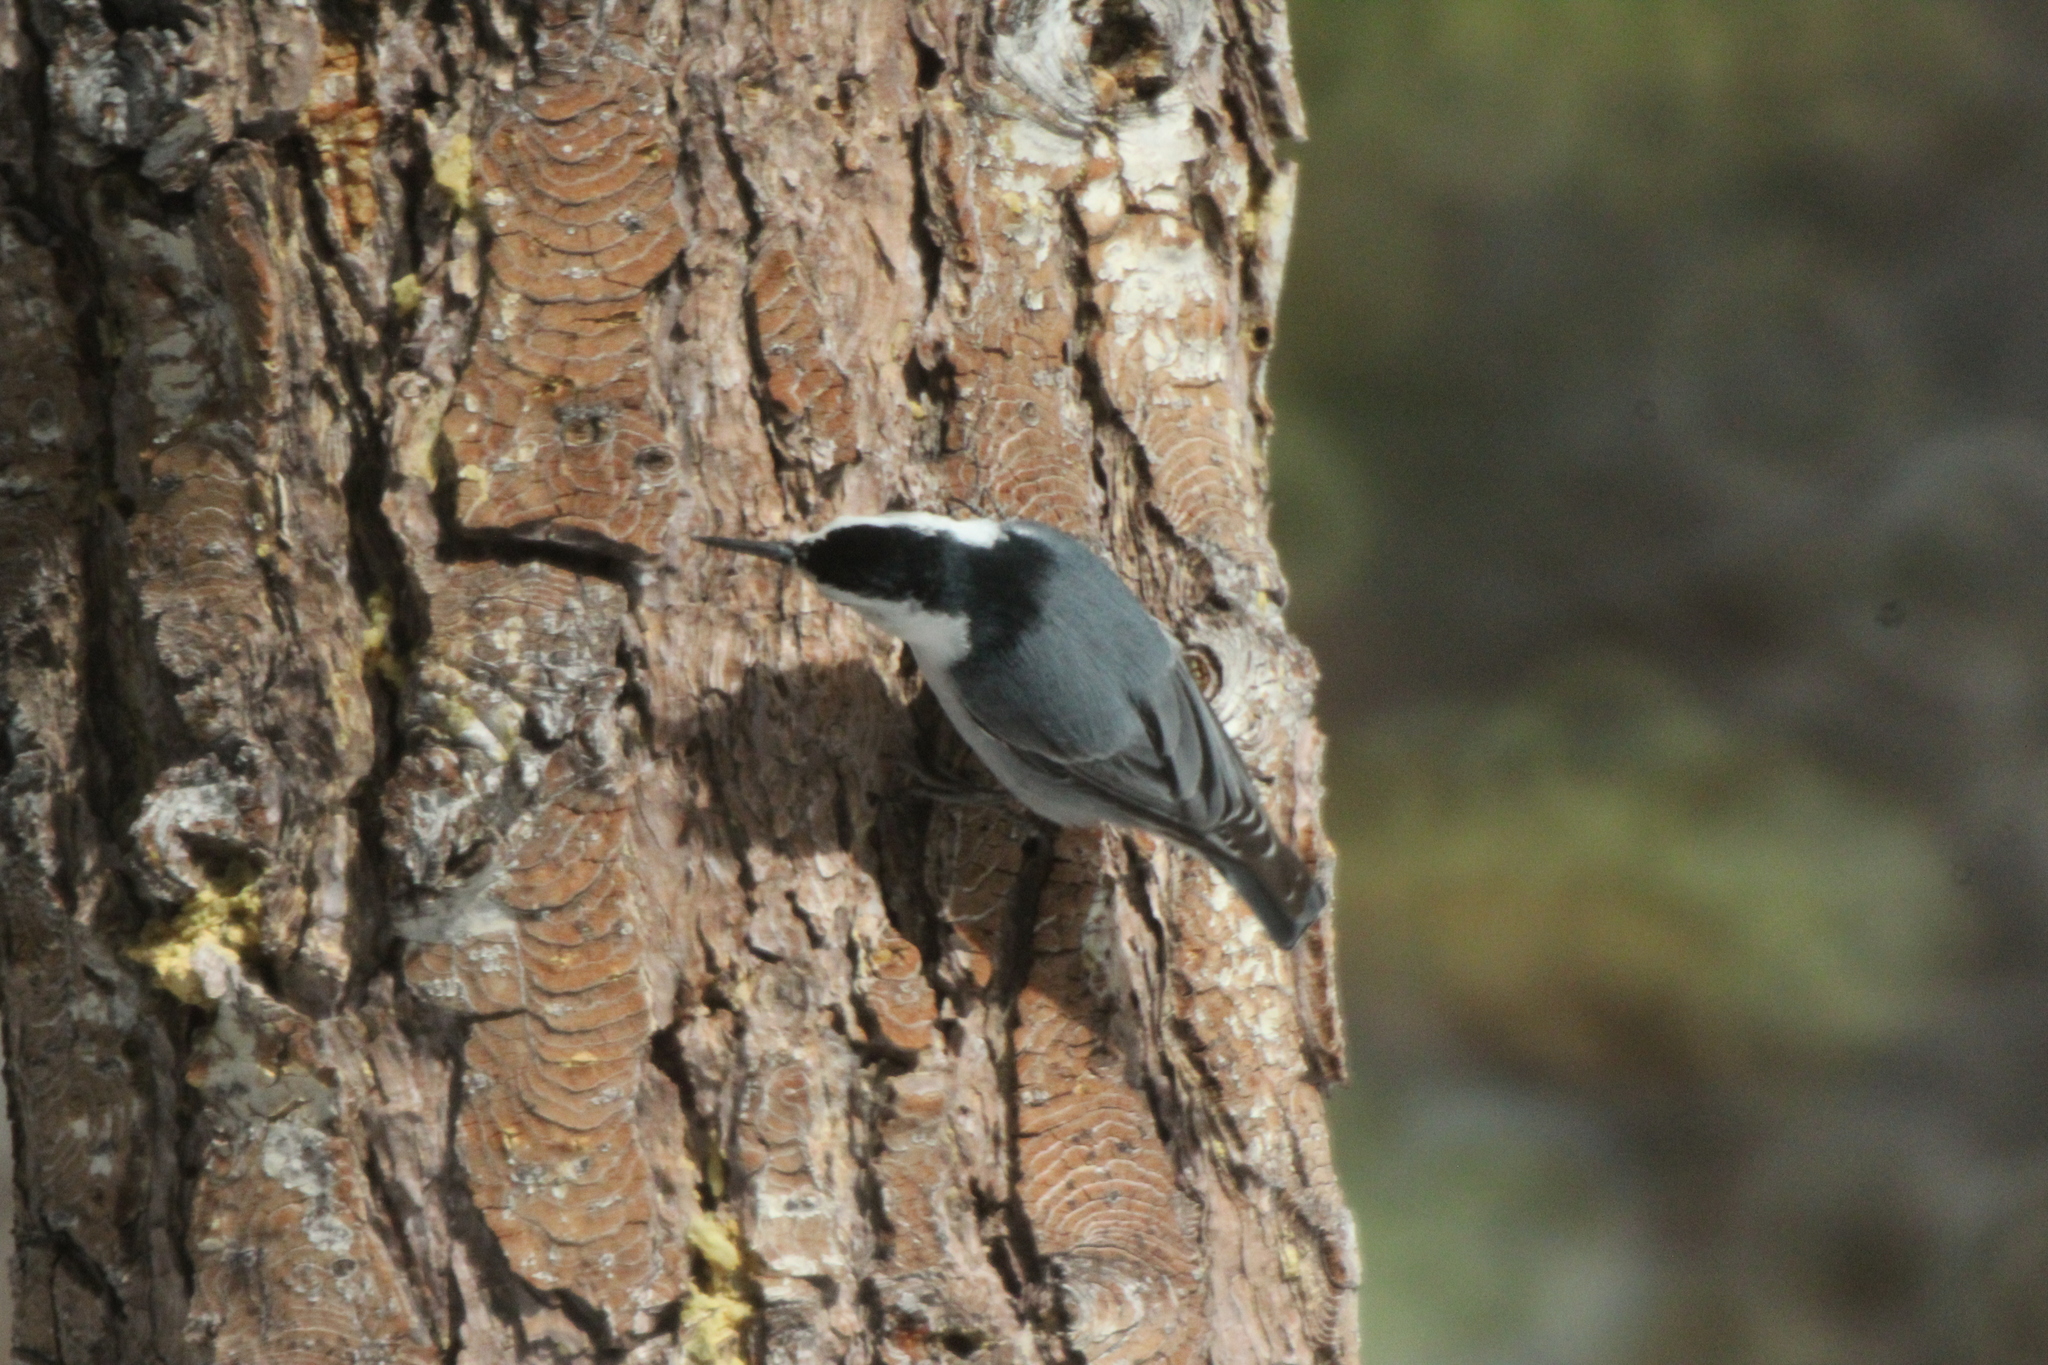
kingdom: Animalia
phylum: Chordata
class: Aves
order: Passeriformes
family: Sittidae
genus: Sitta
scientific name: Sitta carolinensis
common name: White-breasted nuthatch
